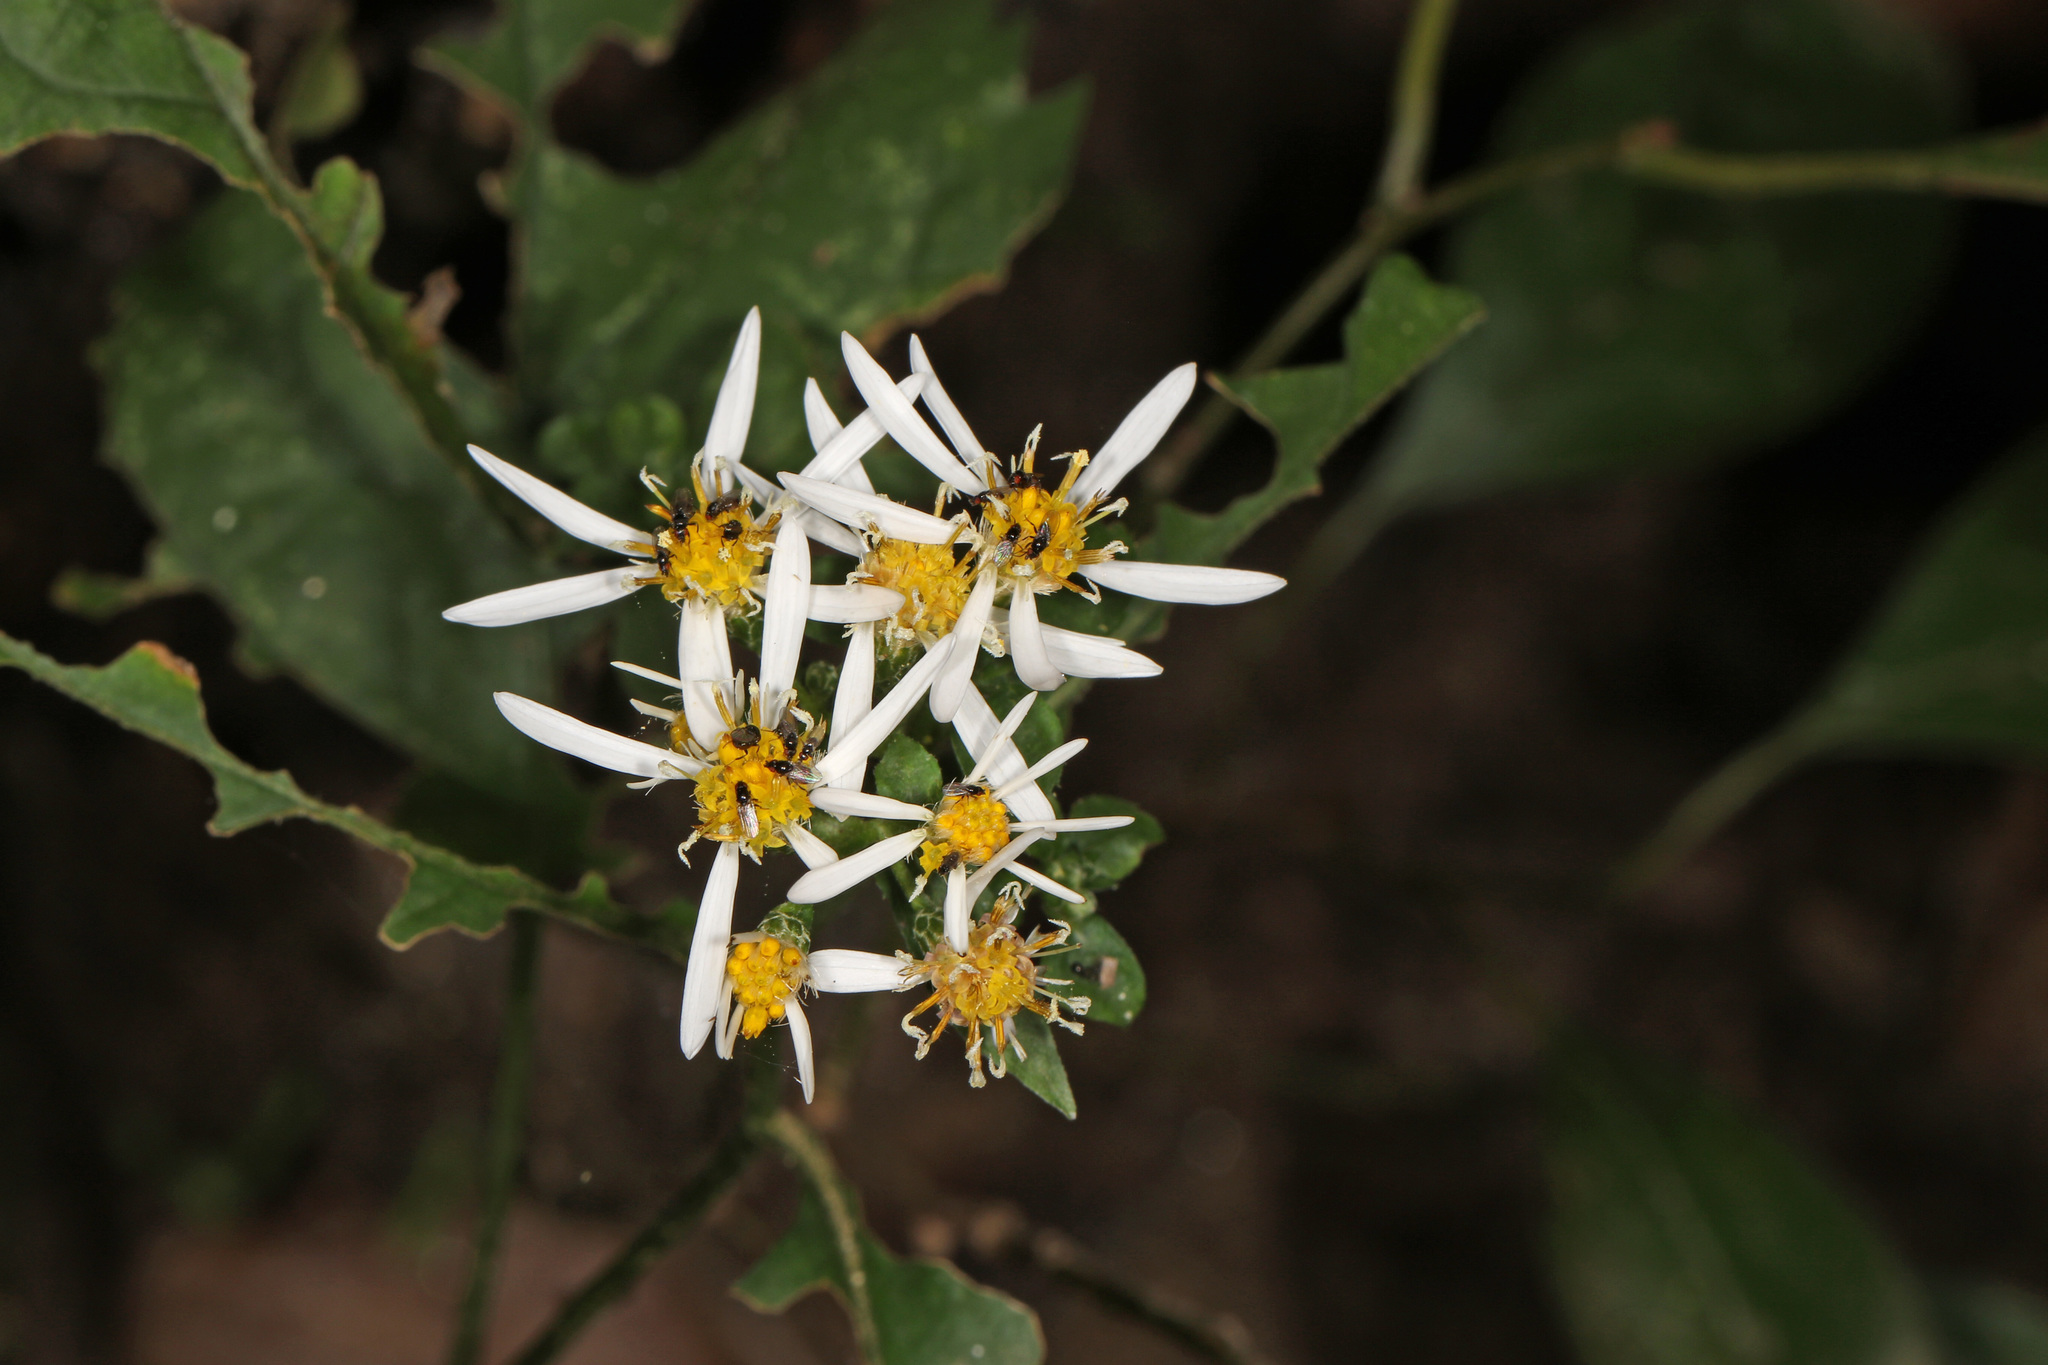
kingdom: Plantae
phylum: Tracheophyta
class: Magnoliopsida
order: Asterales
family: Asteraceae
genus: Eurybia
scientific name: Eurybia divaricata
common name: White wood aster
